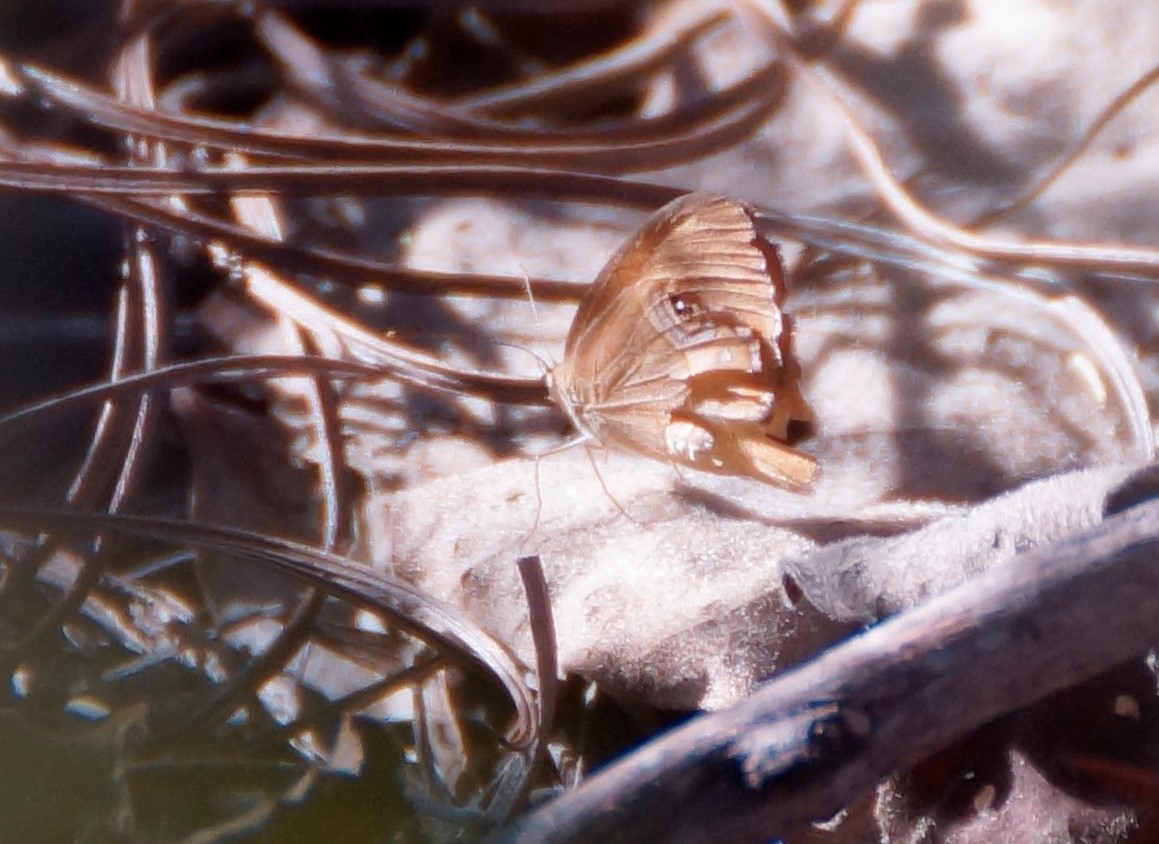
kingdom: Animalia
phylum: Arthropoda
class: Insecta
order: Lepidoptera
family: Nymphalidae
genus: Hypocysta
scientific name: Hypocysta adiante
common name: Orange ringlet
